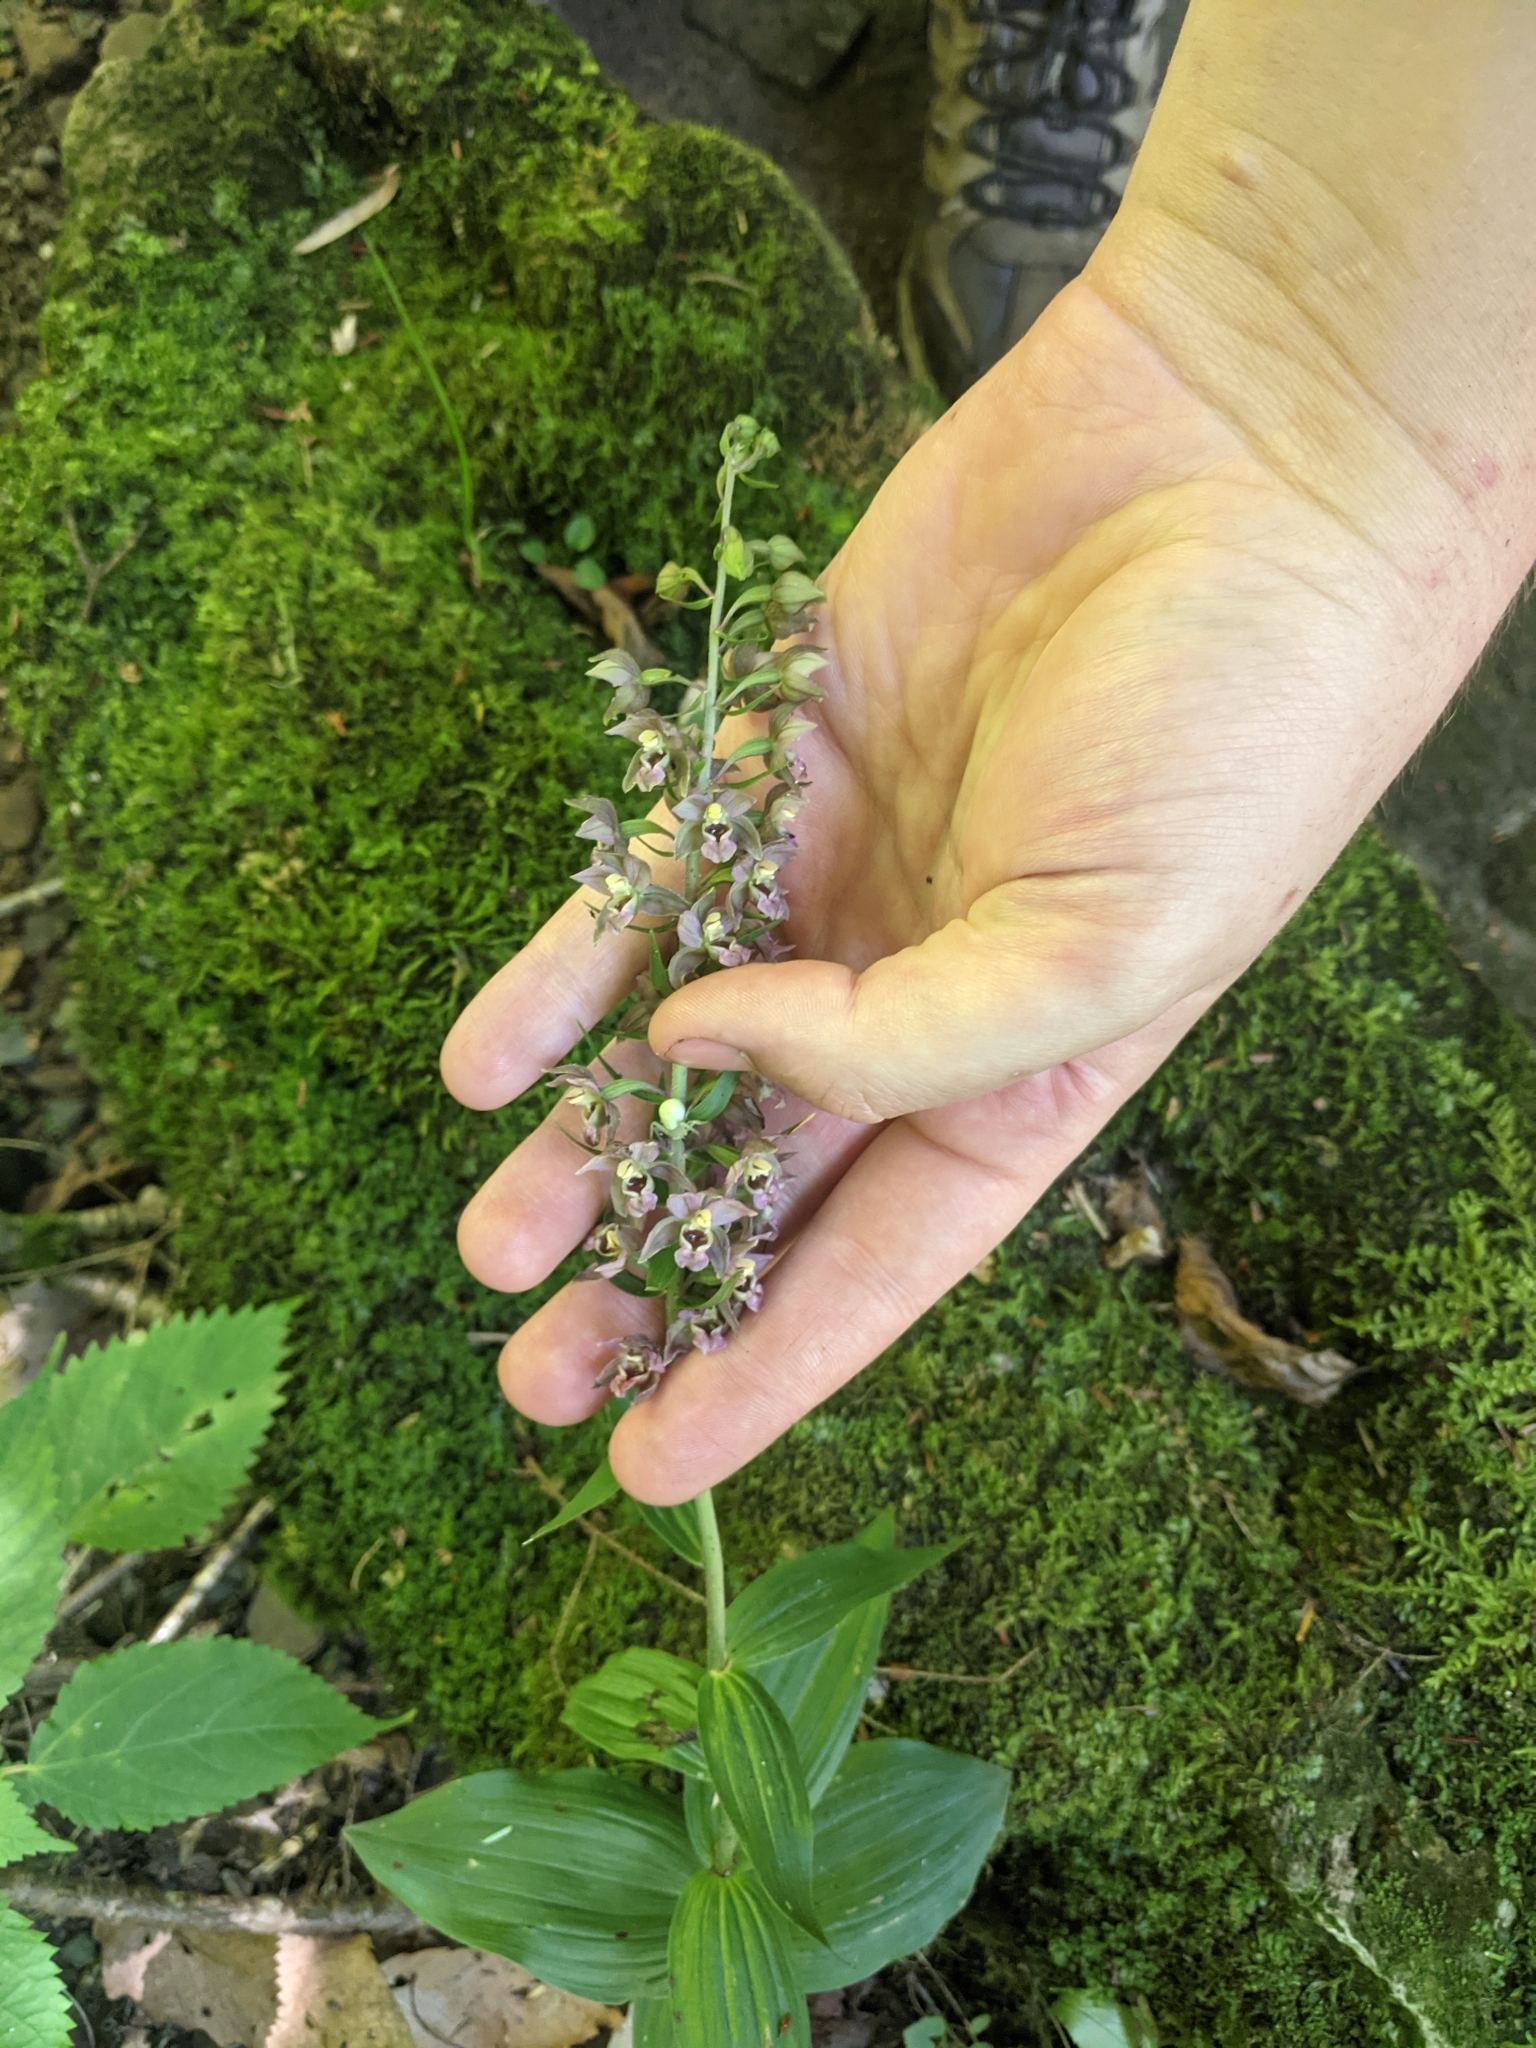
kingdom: Plantae
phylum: Tracheophyta
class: Liliopsida
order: Asparagales
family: Orchidaceae
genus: Epipactis
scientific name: Epipactis helleborine
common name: Broad-leaved helleborine
